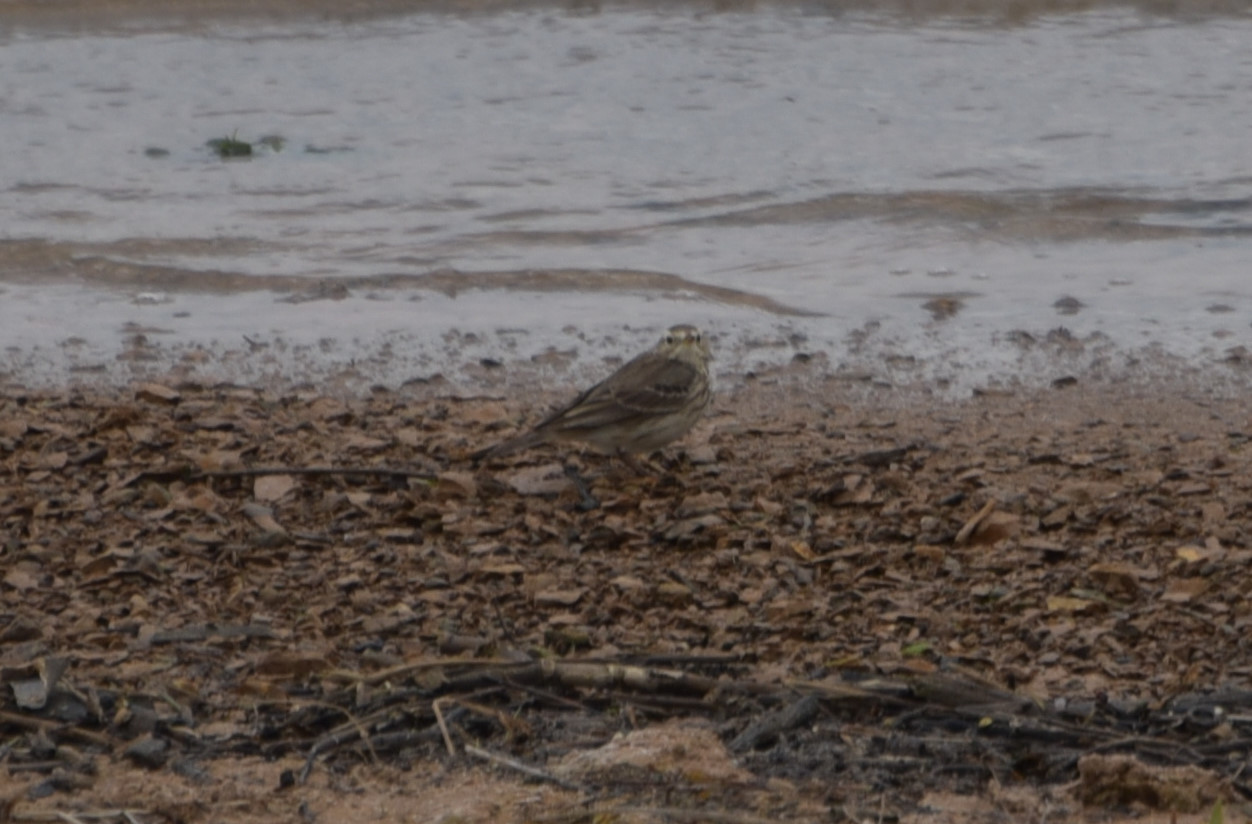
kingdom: Animalia
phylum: Chordata
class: Aves
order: Passeriformes
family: Motacillidae
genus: Anthus
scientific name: Anthus rubescens
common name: Buff-bellied pipit
